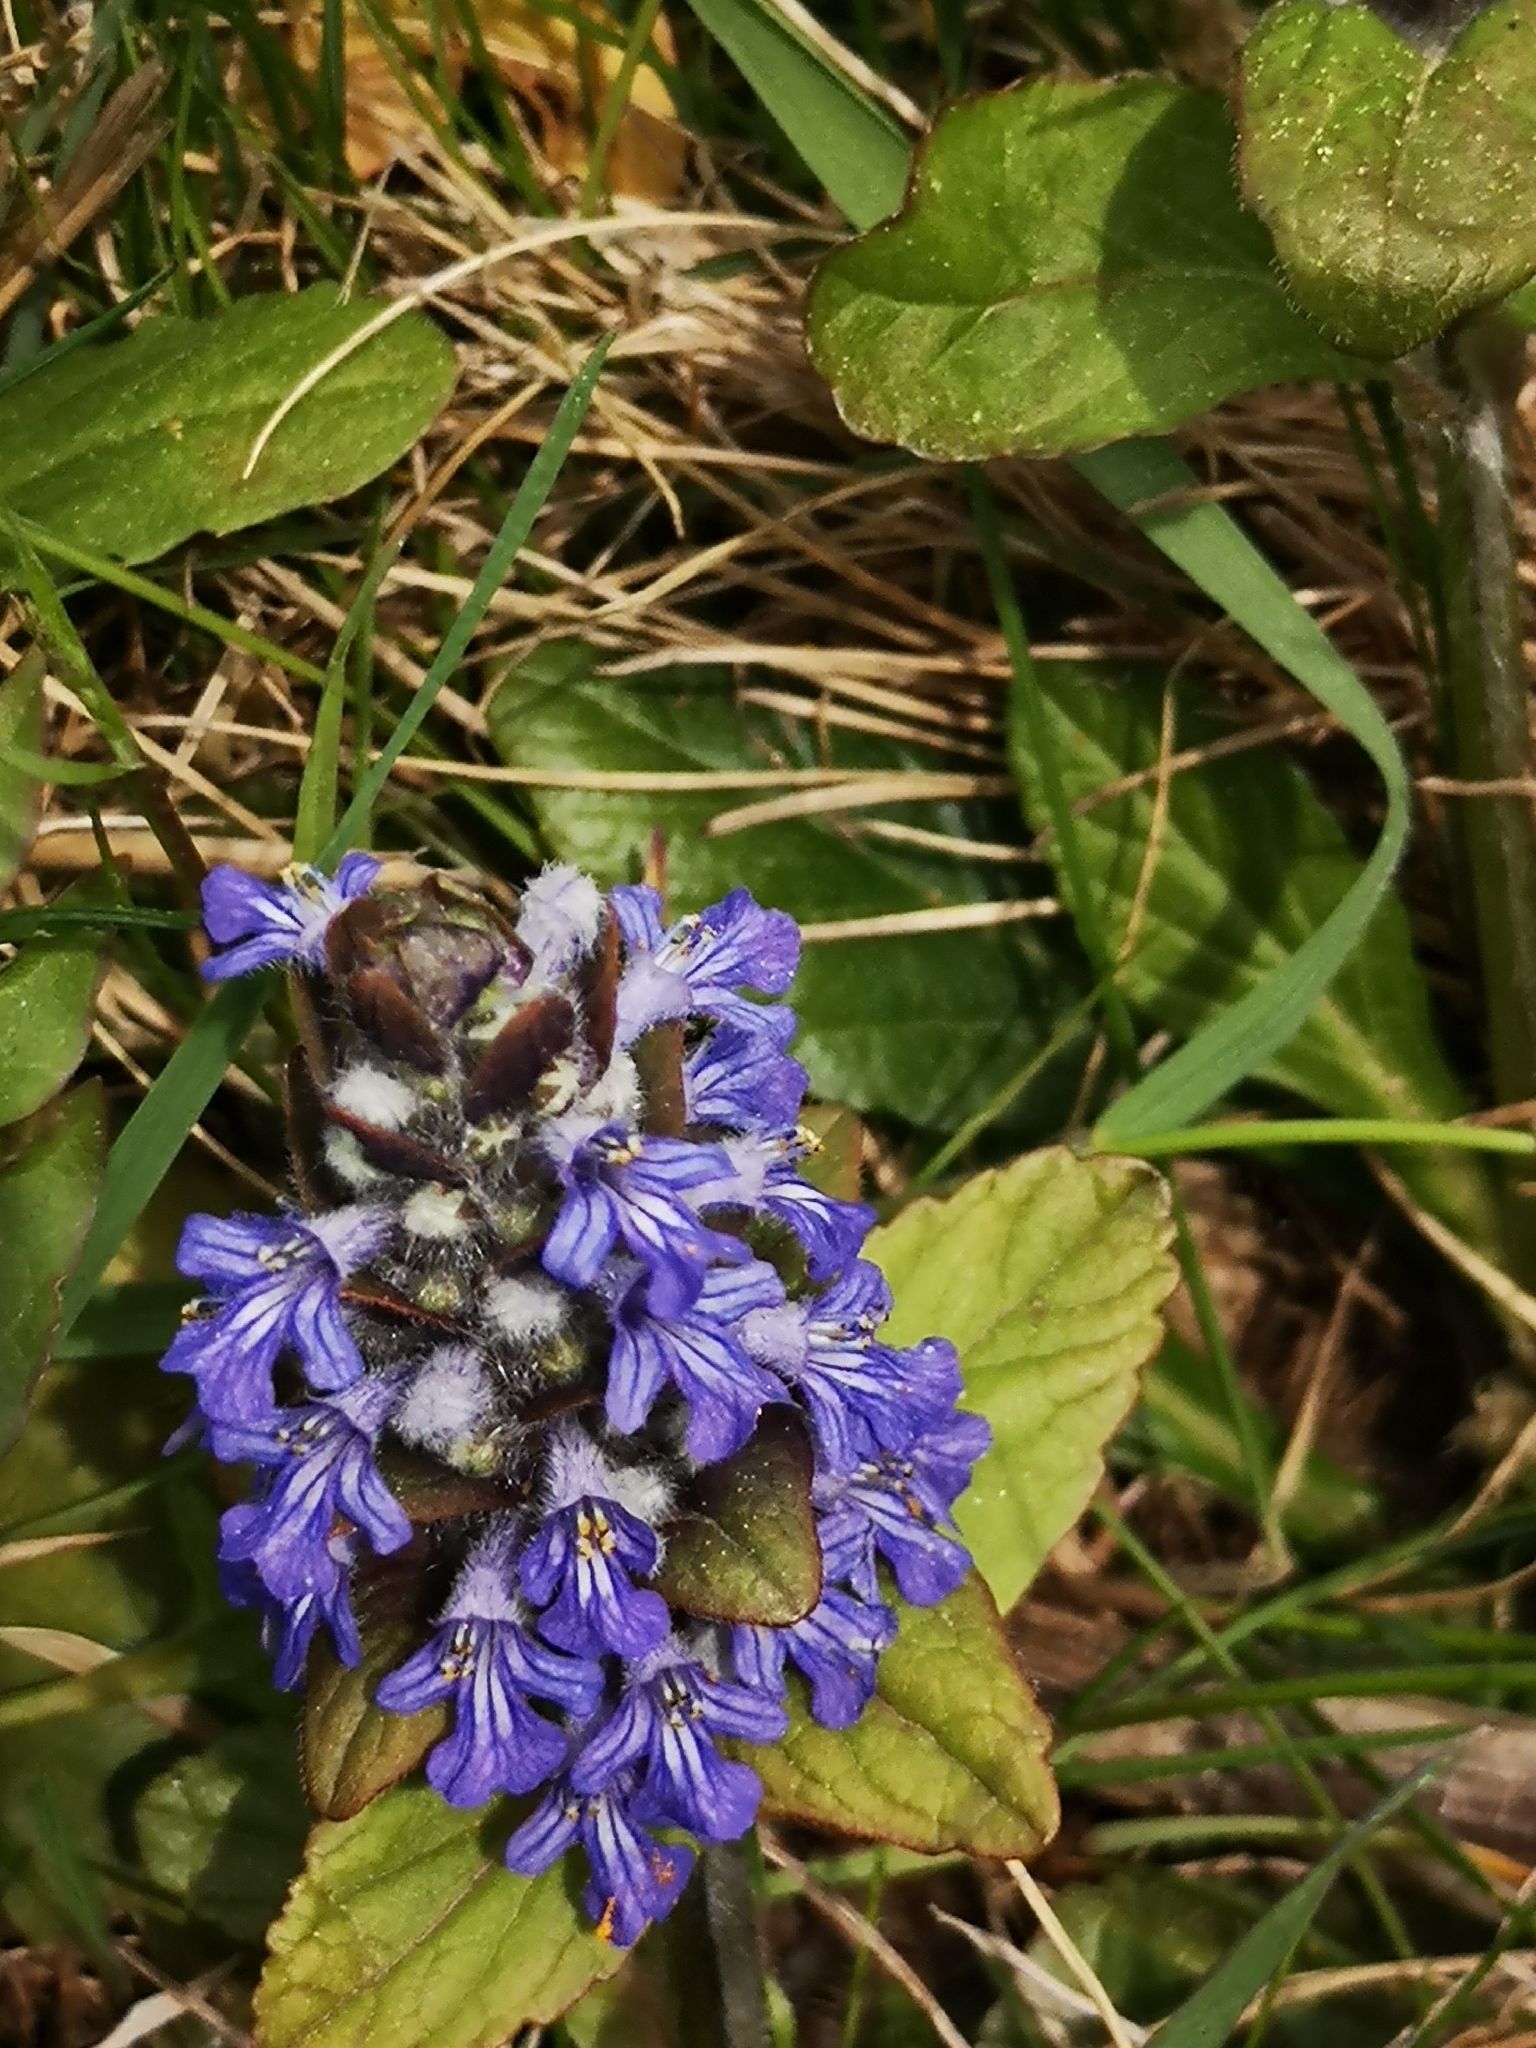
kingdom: Plantae
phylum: Tracheophyta
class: Magnoliopsida
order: Lamiales
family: Lamiaceae
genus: Ajuga
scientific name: Ajuga reptans
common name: Bugle
